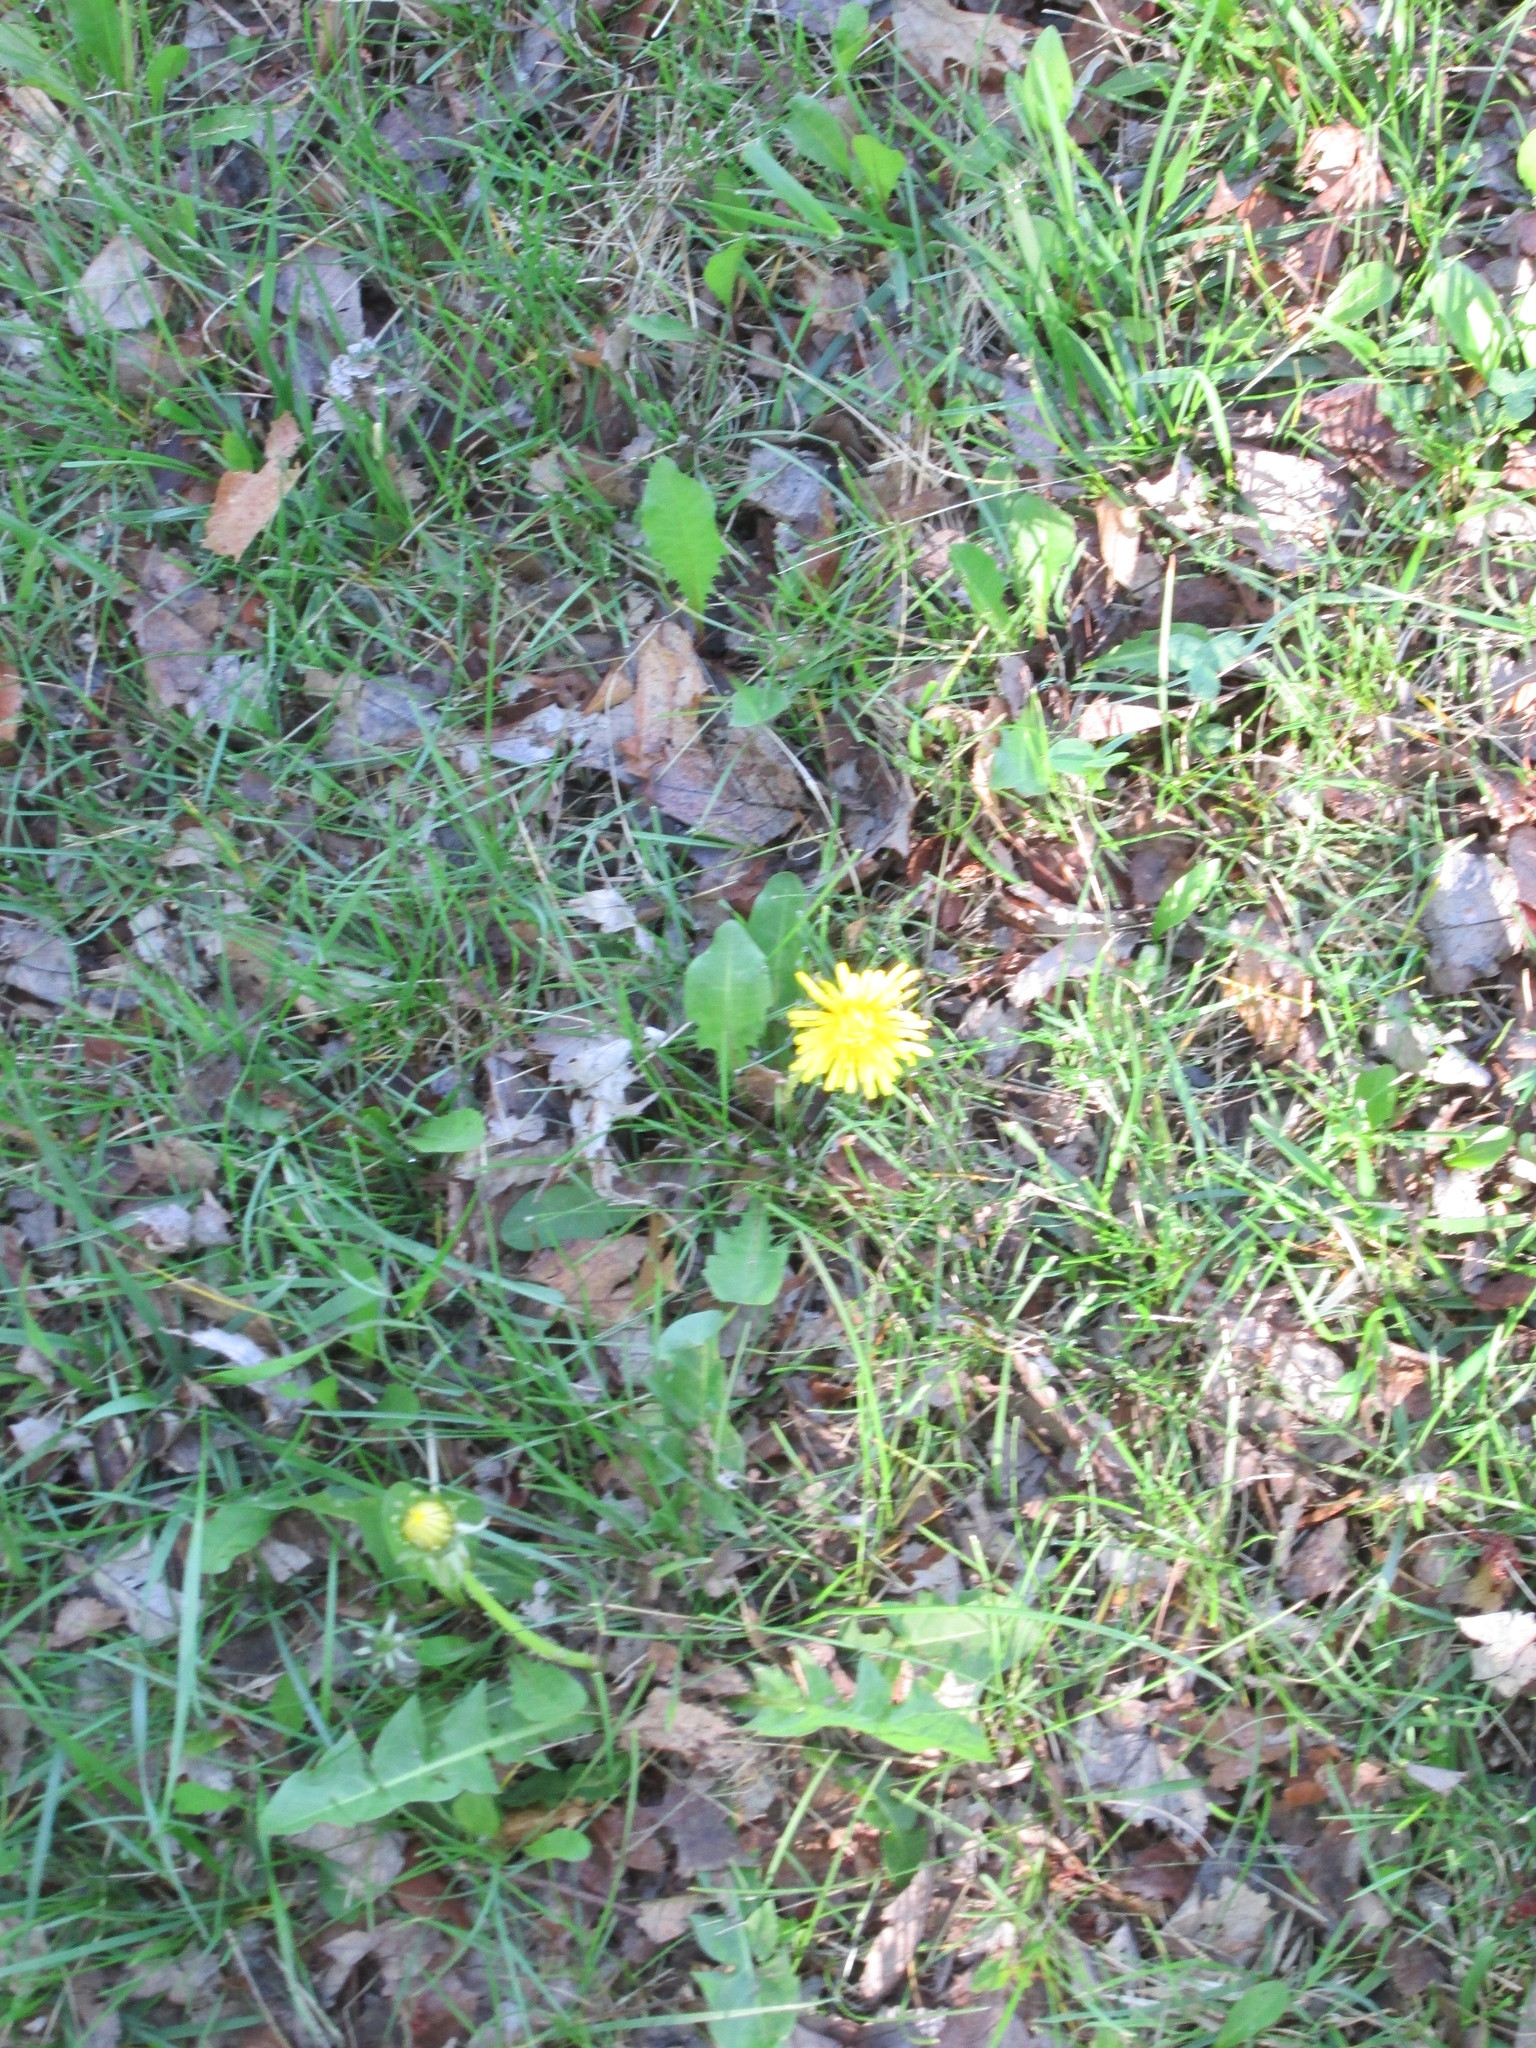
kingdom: Plantae
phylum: Tracheophyta
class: Magnoliopsida
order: Asterales
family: Asteraceae
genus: Taraxacum
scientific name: Taraxacum officinale
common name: Common dandelion
